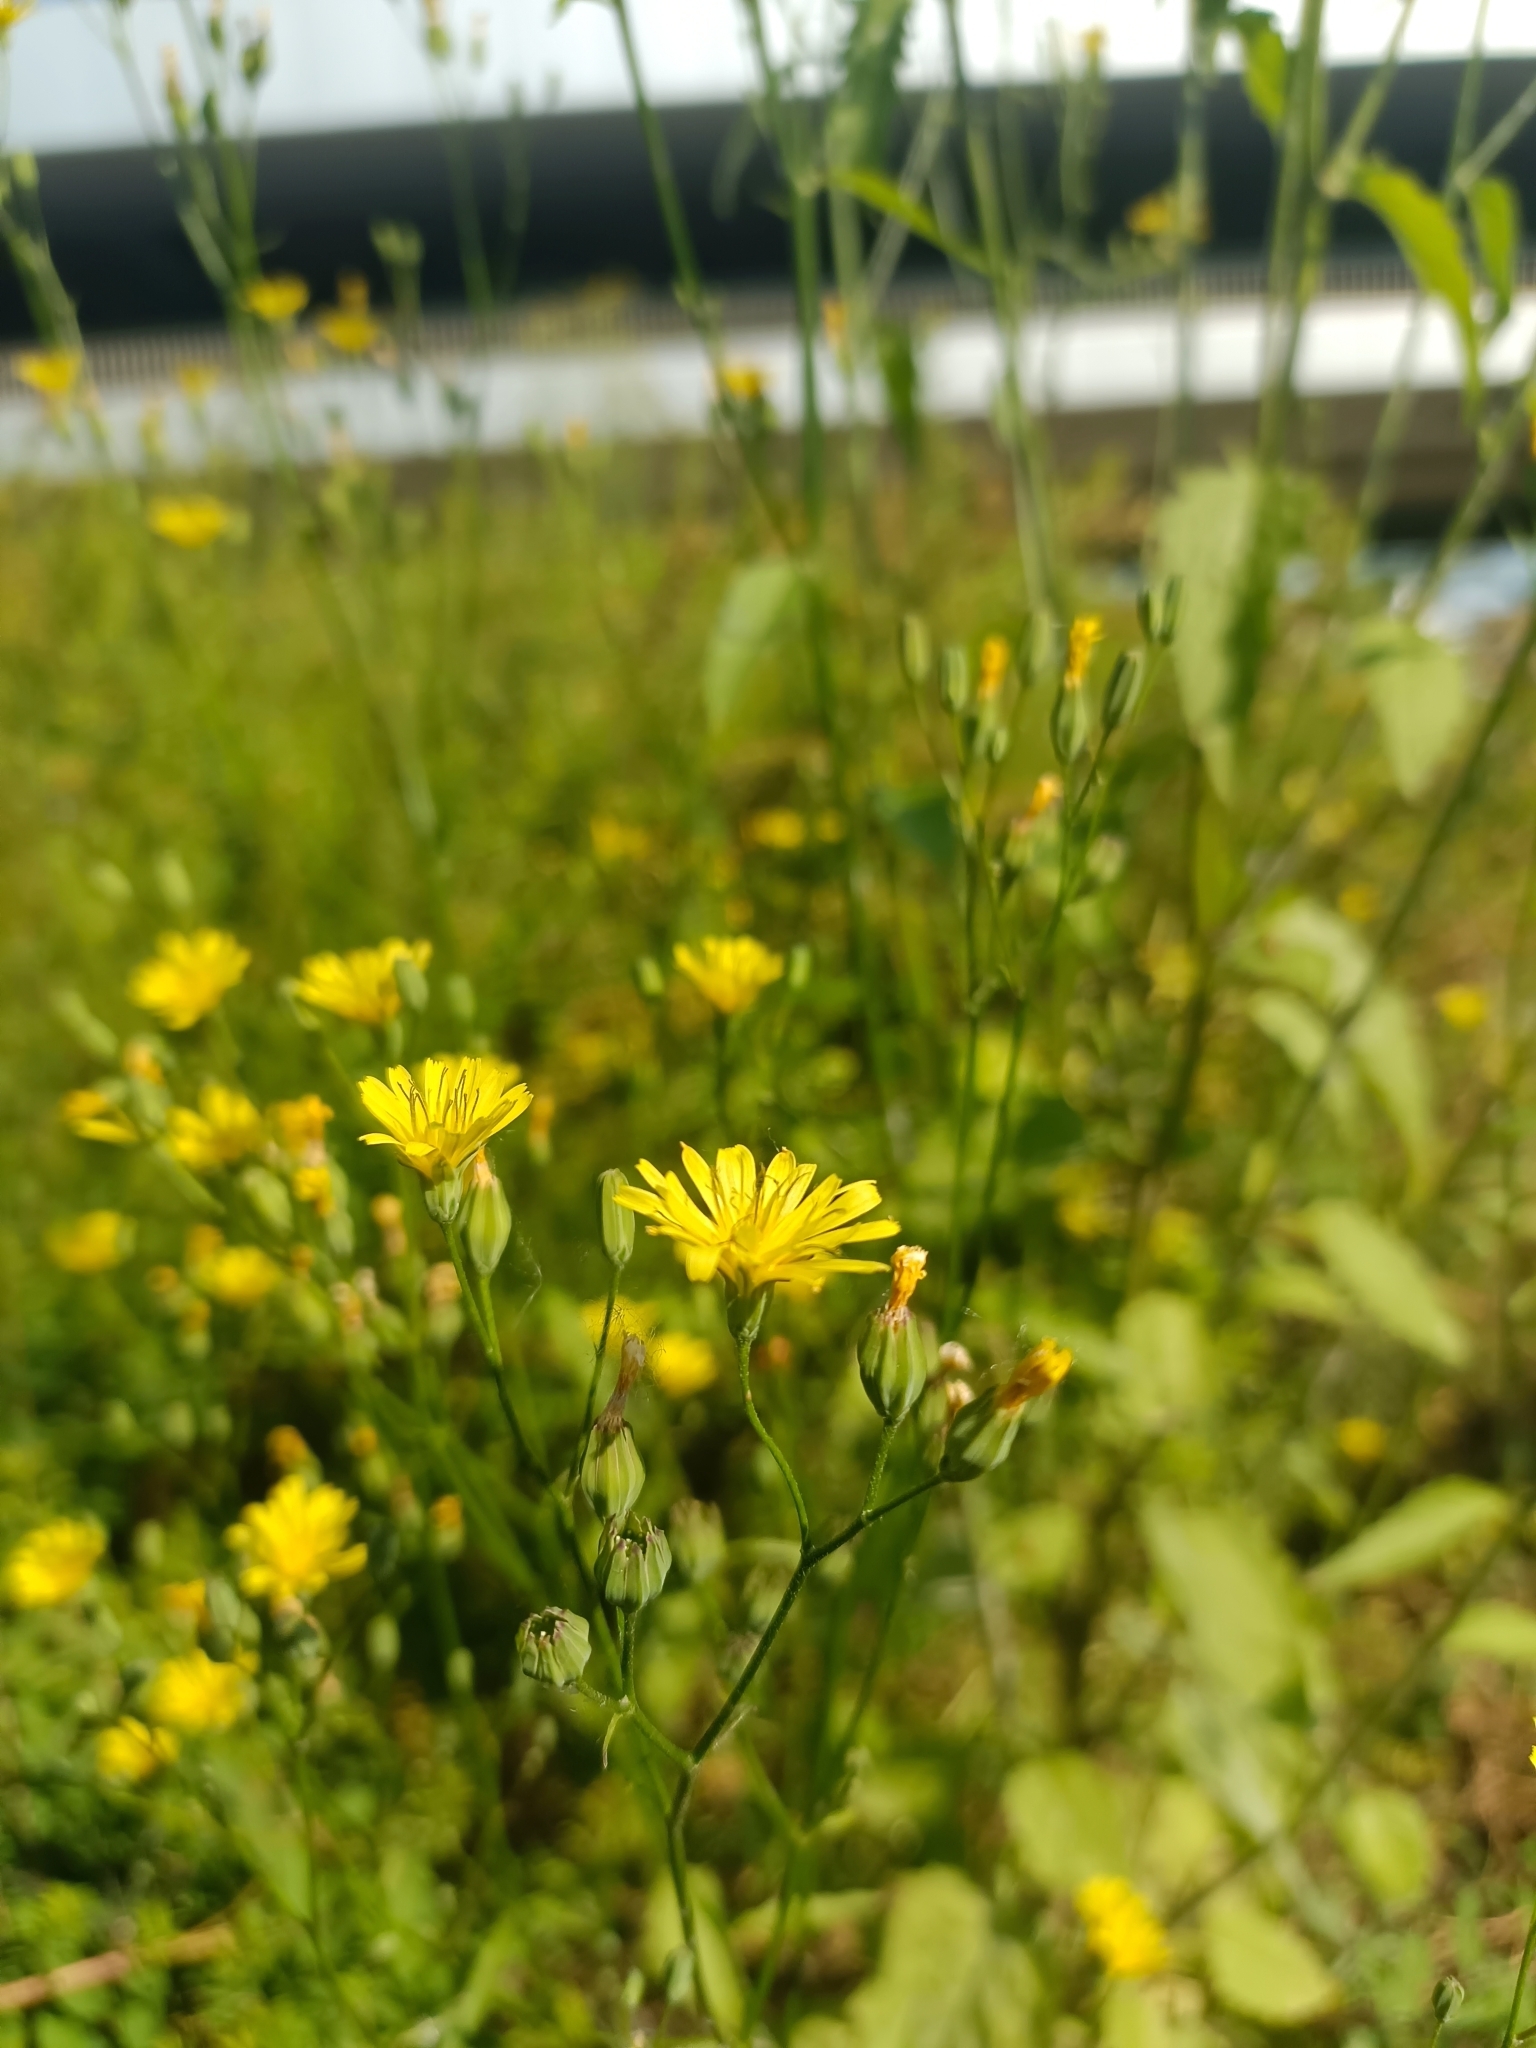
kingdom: Plantae
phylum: Tracheophyta
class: Magnoliopsida
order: Asterales
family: Asteraceae
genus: Lapsana
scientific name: Lapsana communis
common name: Nipplewort
